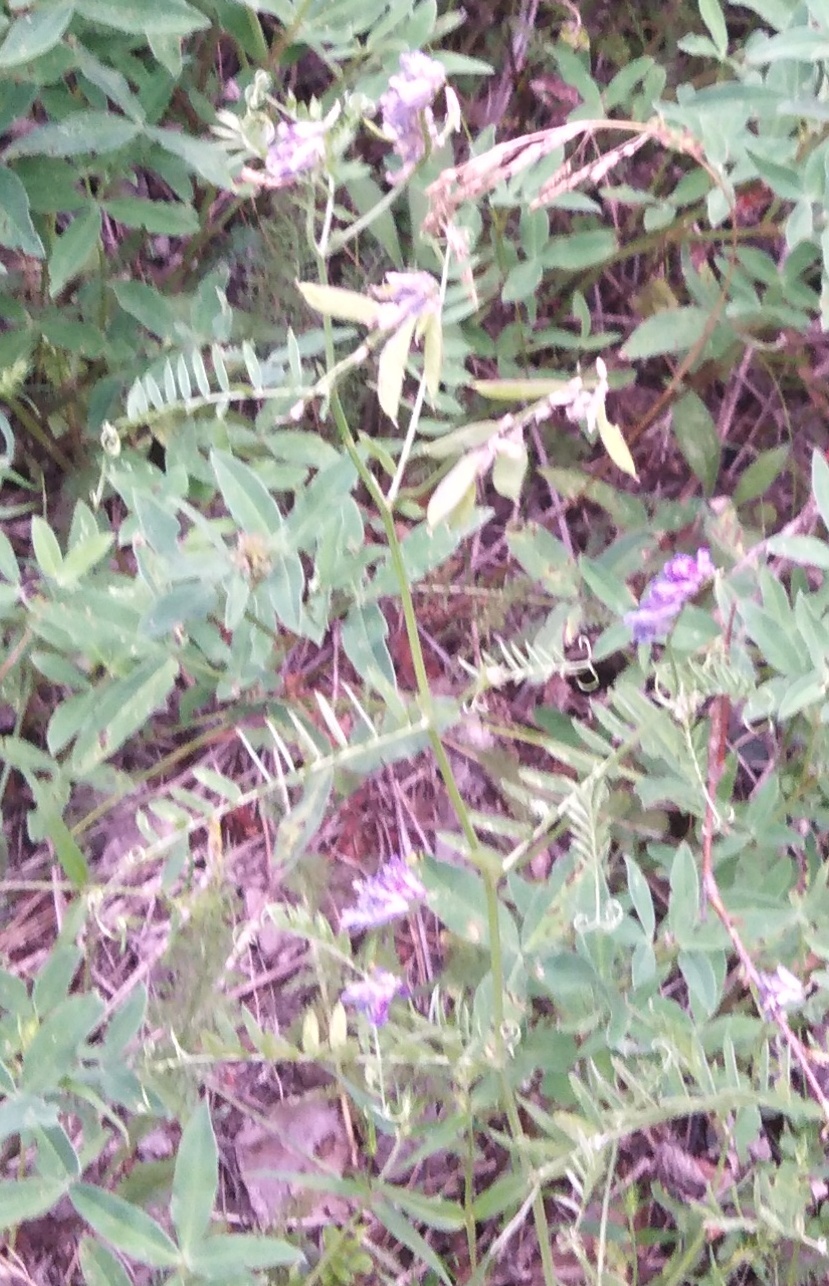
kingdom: Plantae
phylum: Tracheophyta
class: Magnoliopsida
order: Fabales
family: Fabaceae
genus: Vicia
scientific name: Vicia cracca
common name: Bird vetch
